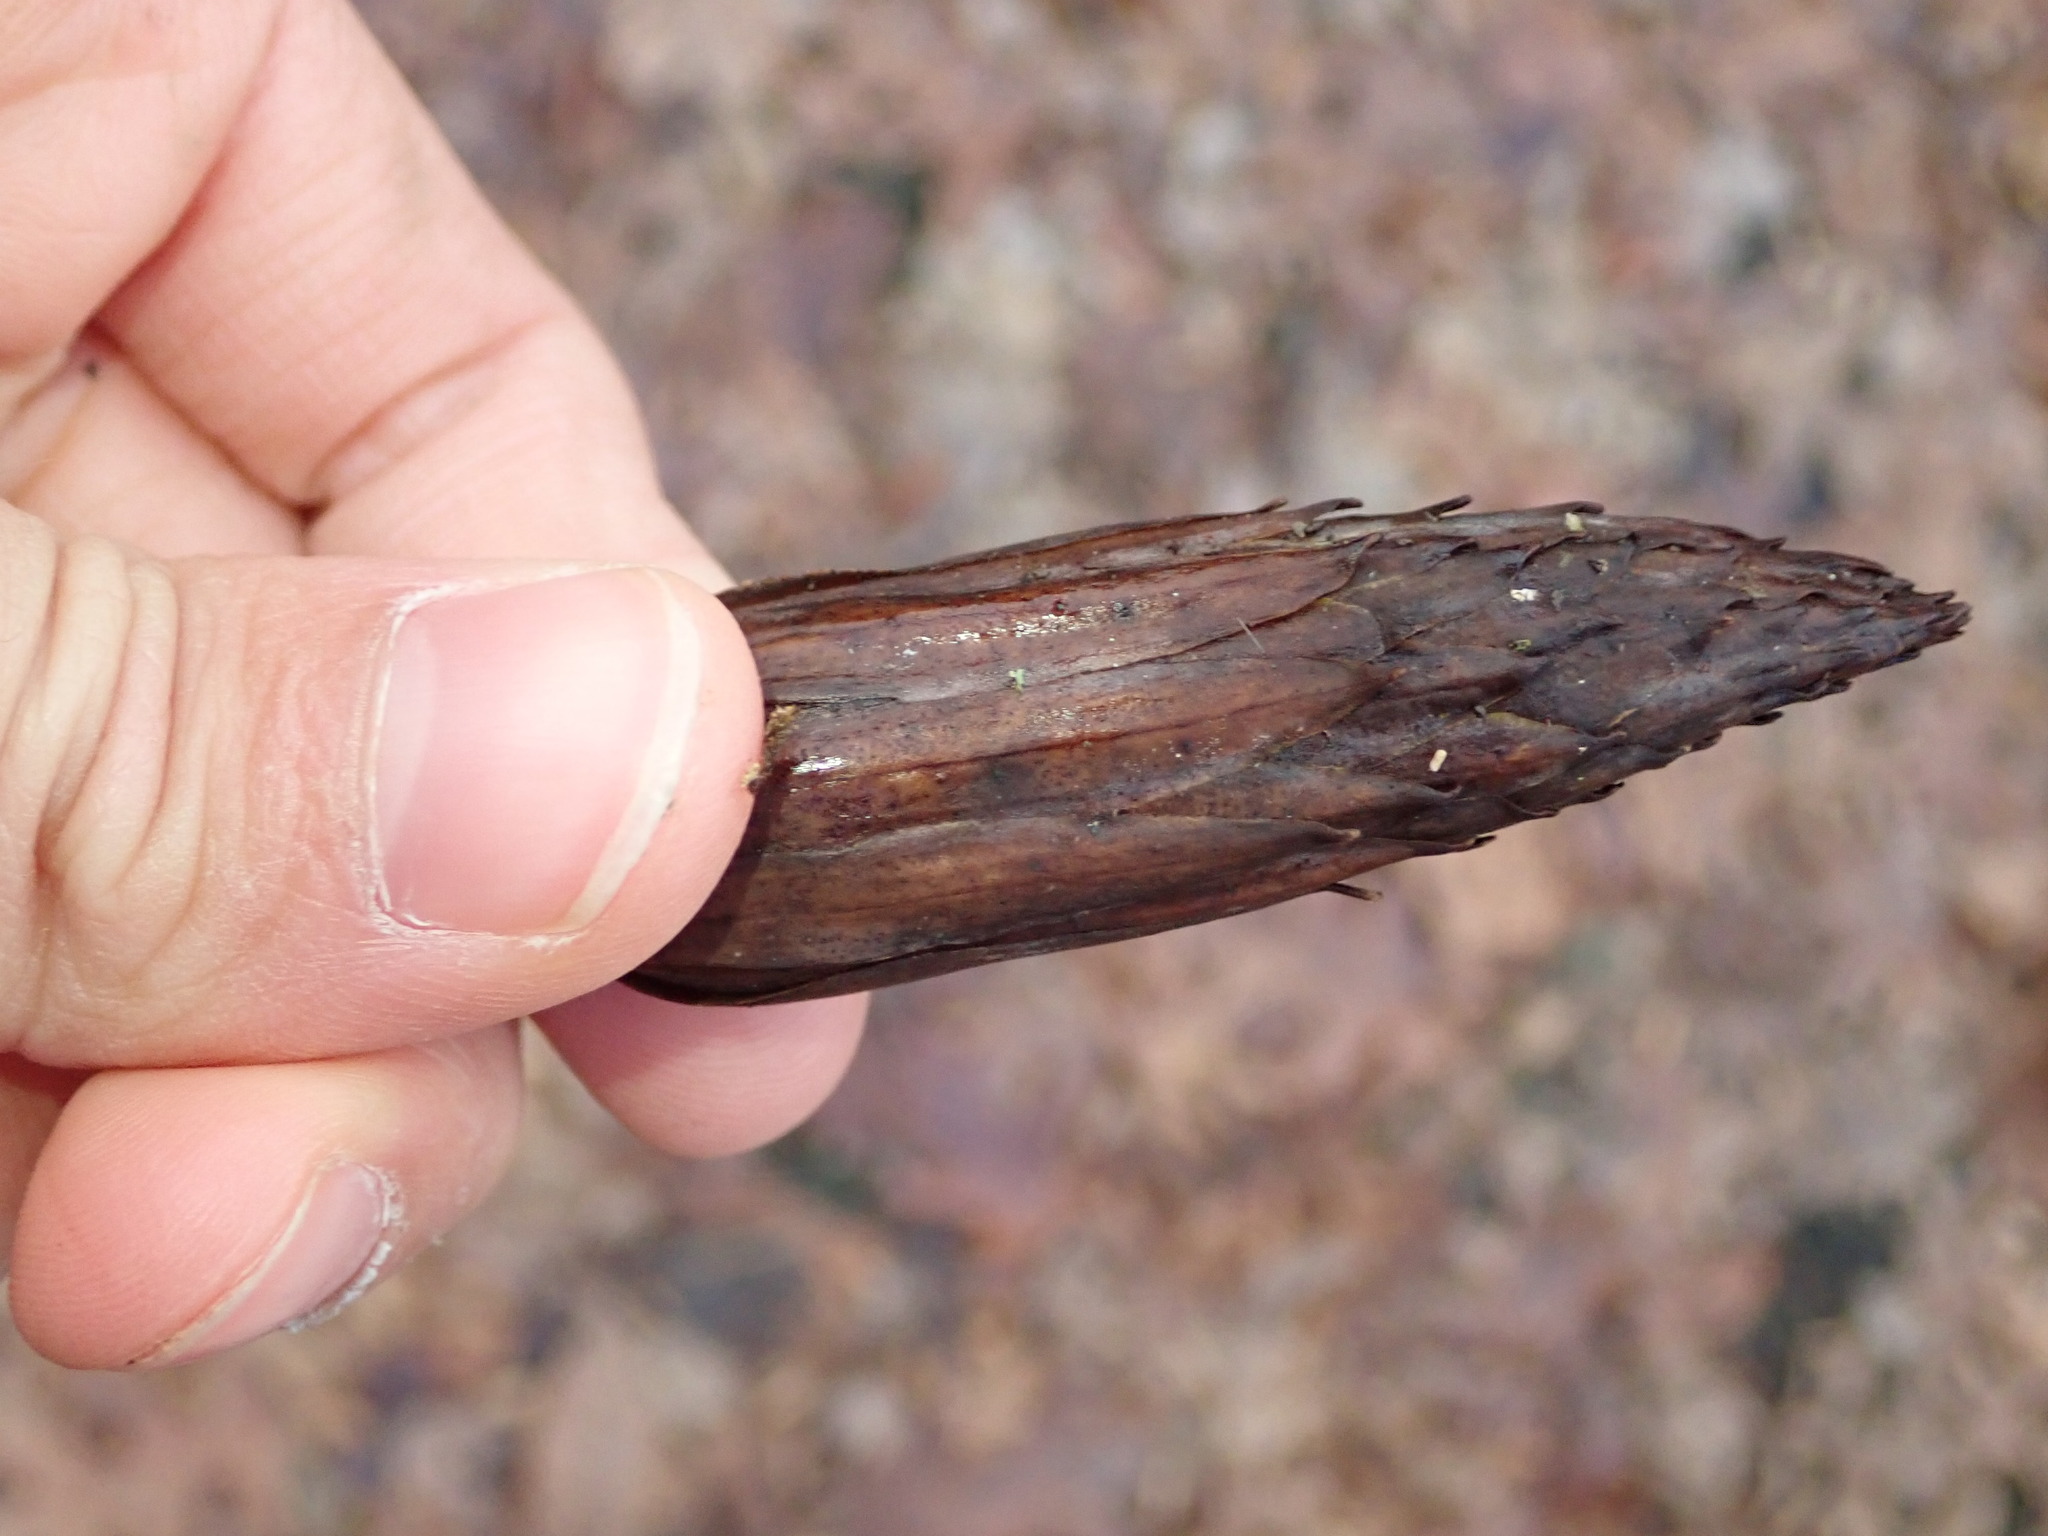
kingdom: Plantae
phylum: Tracheophyta
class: Magnoliopsida
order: Magnoliales
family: Magnoliaceae
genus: Liriodendron
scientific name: Liriodendron tulipifera
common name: Tulip tree
